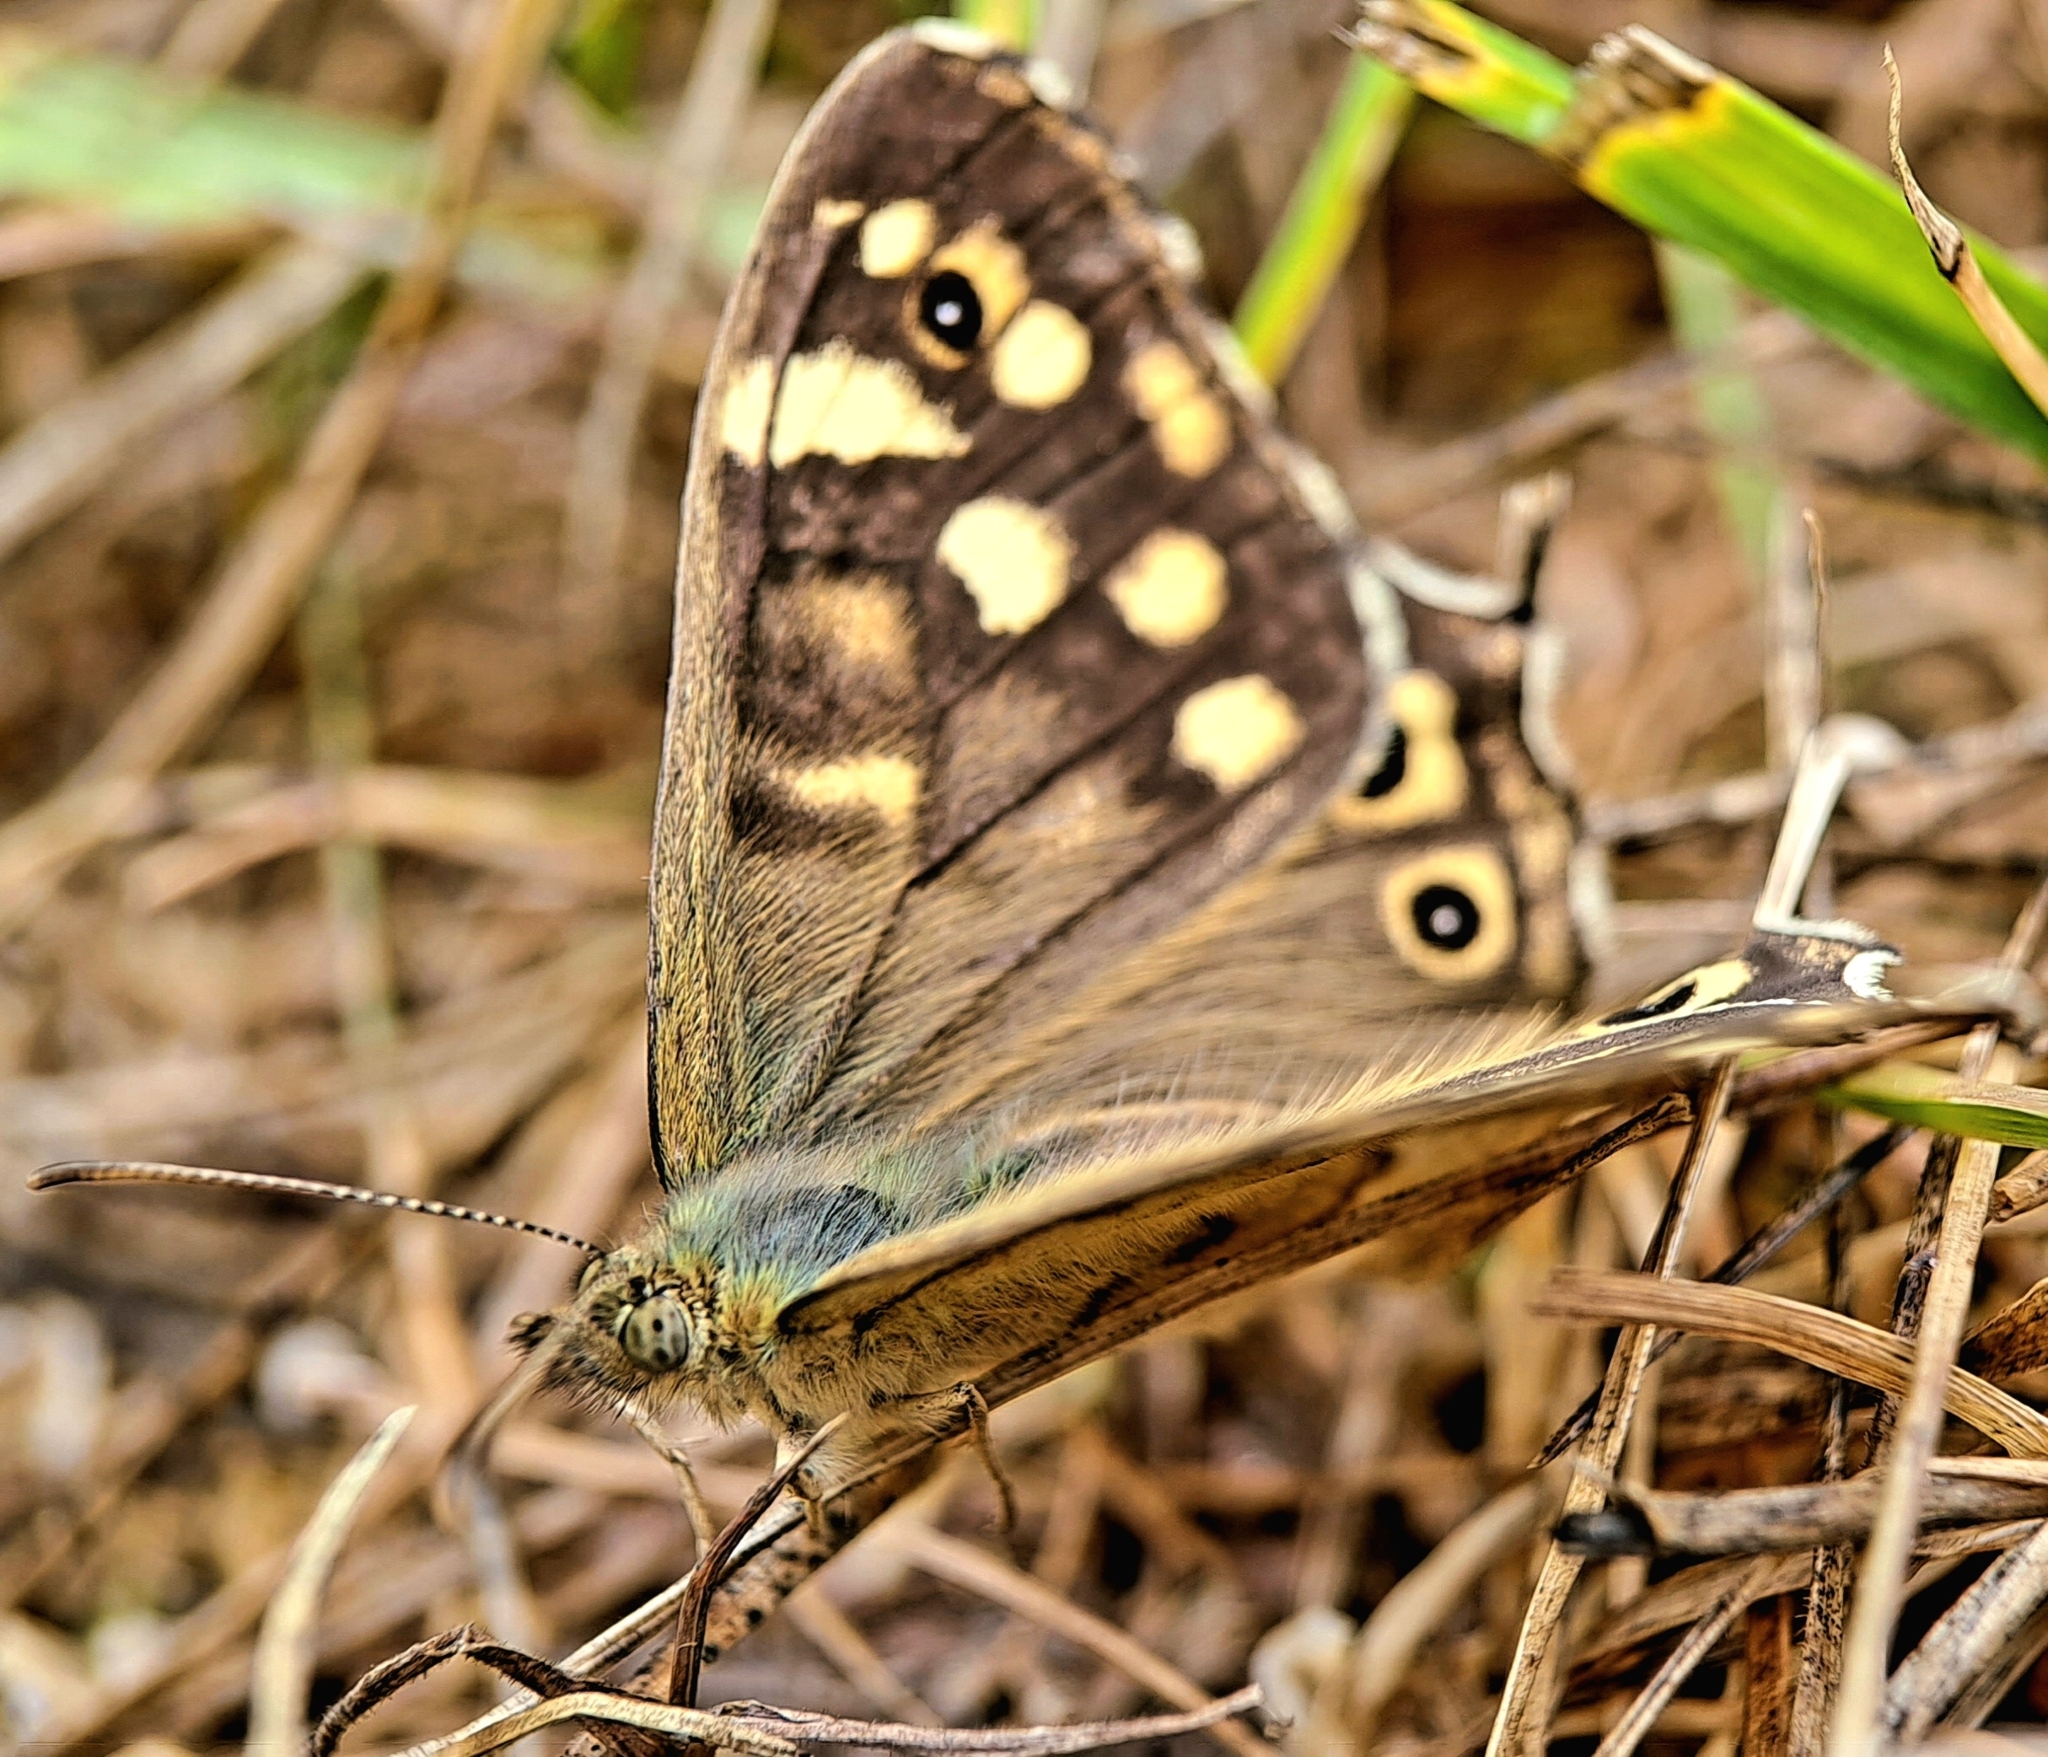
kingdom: Animalia
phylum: Arthropoda
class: Insecta
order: Lepidoptera
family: Nymphalidae
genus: Pararge
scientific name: Pararge aegeria
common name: Speckled wood
